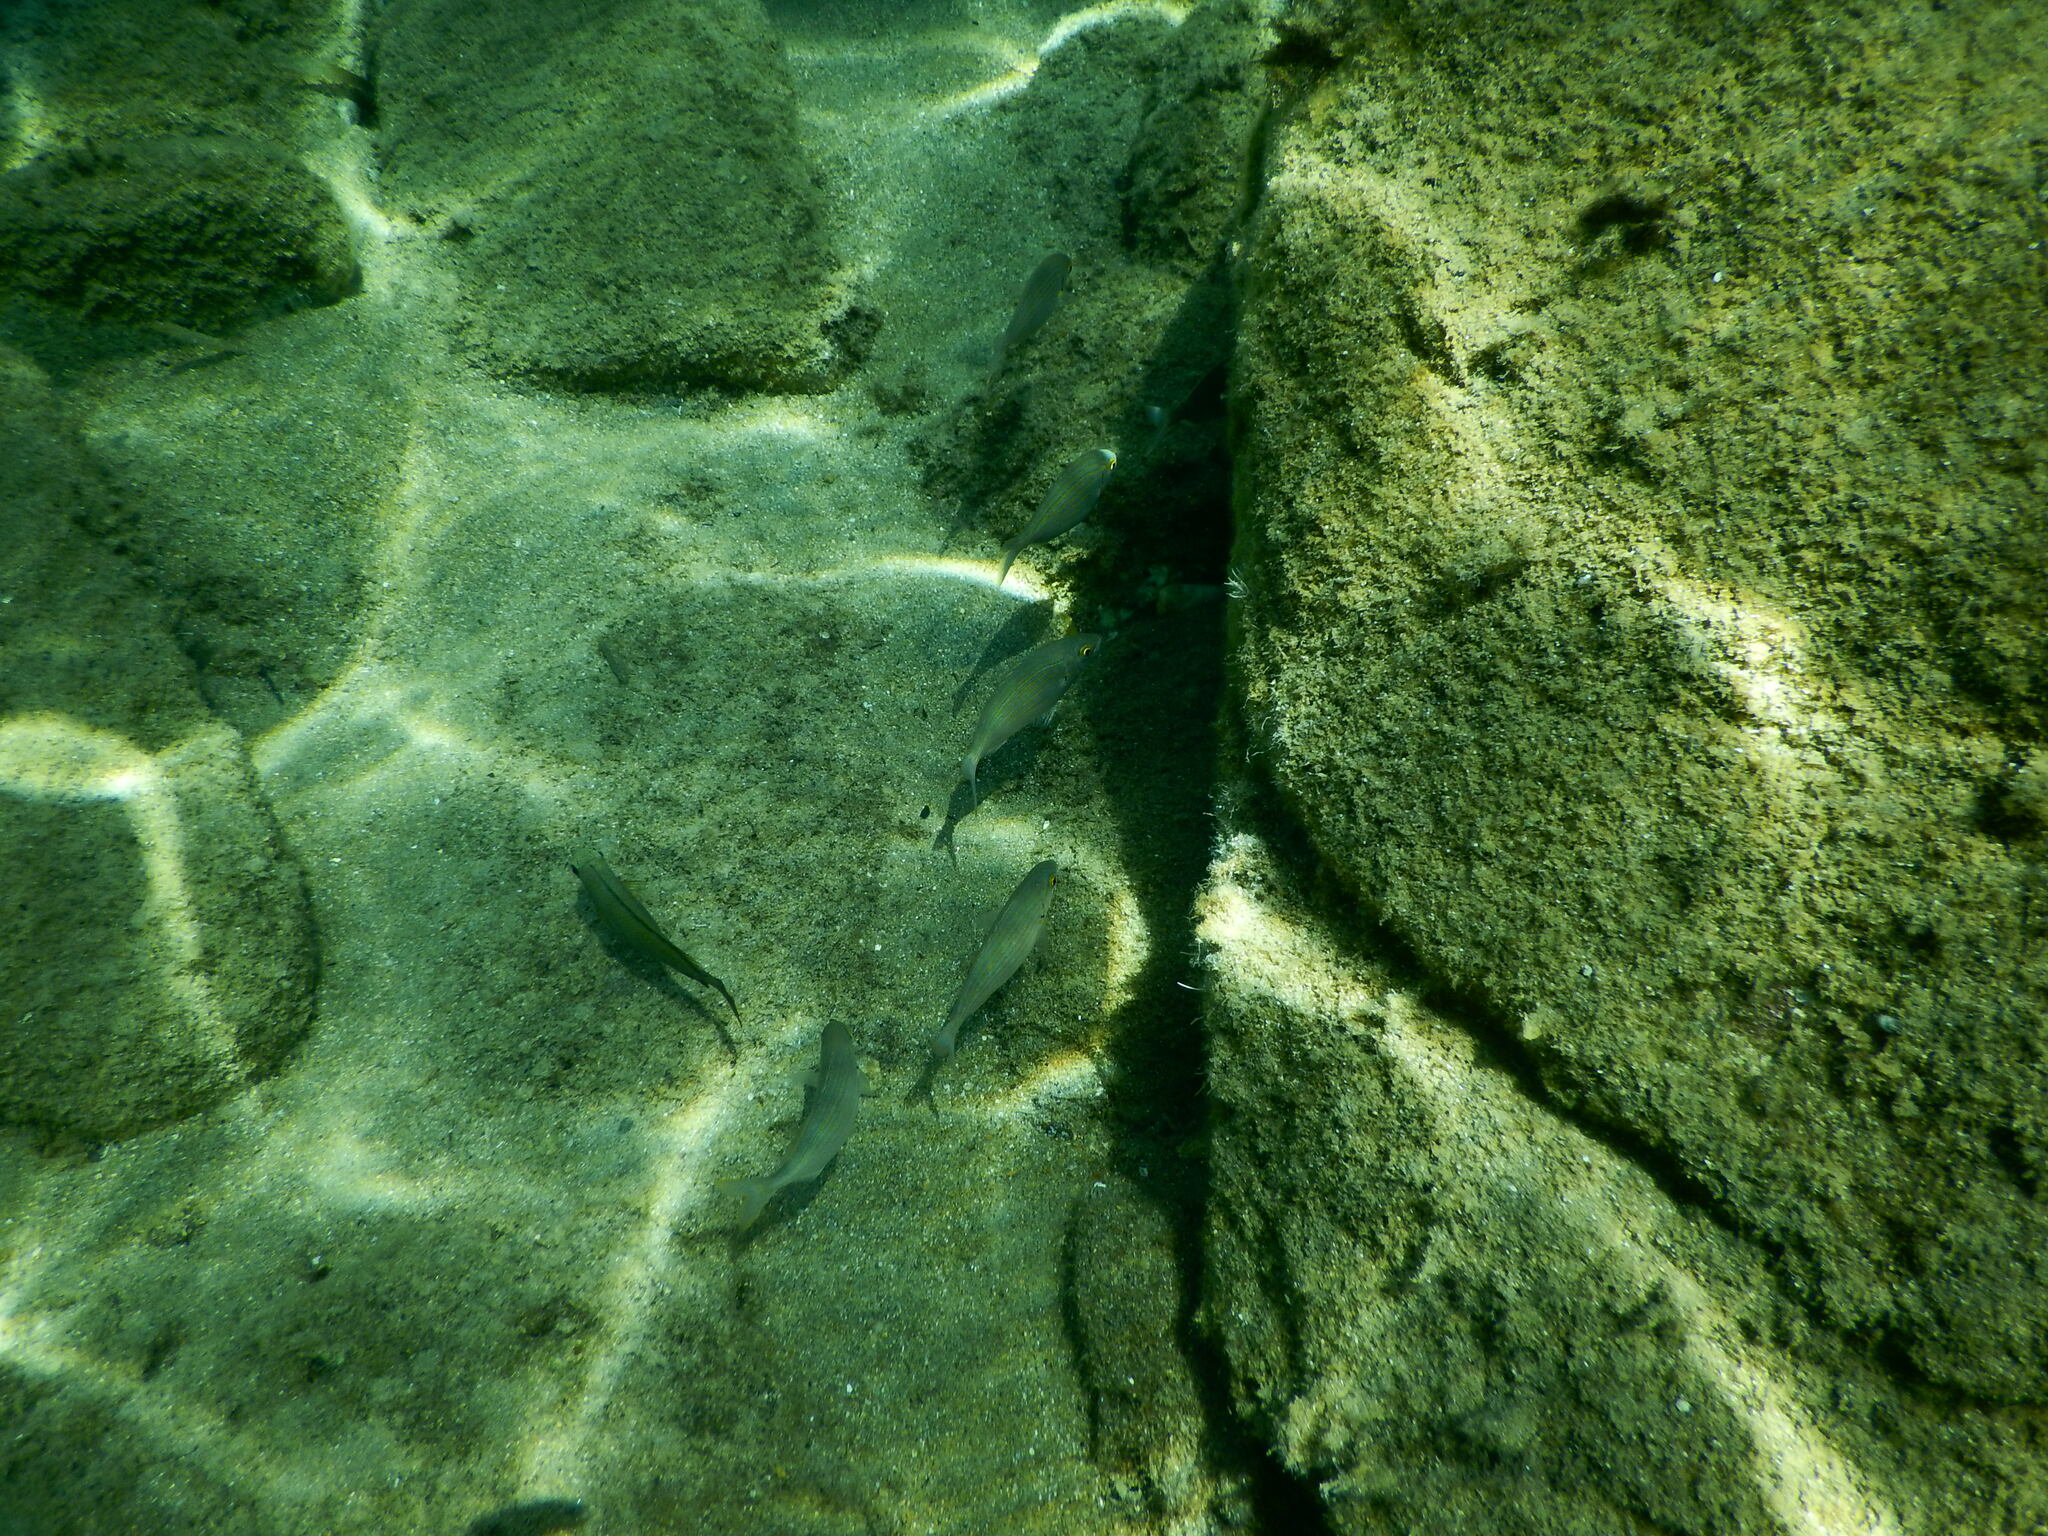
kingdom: Animalia
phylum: Chordata
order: Perciformes
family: Sparidae
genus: Sarpa
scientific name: Sarpa salpa
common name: Salema
